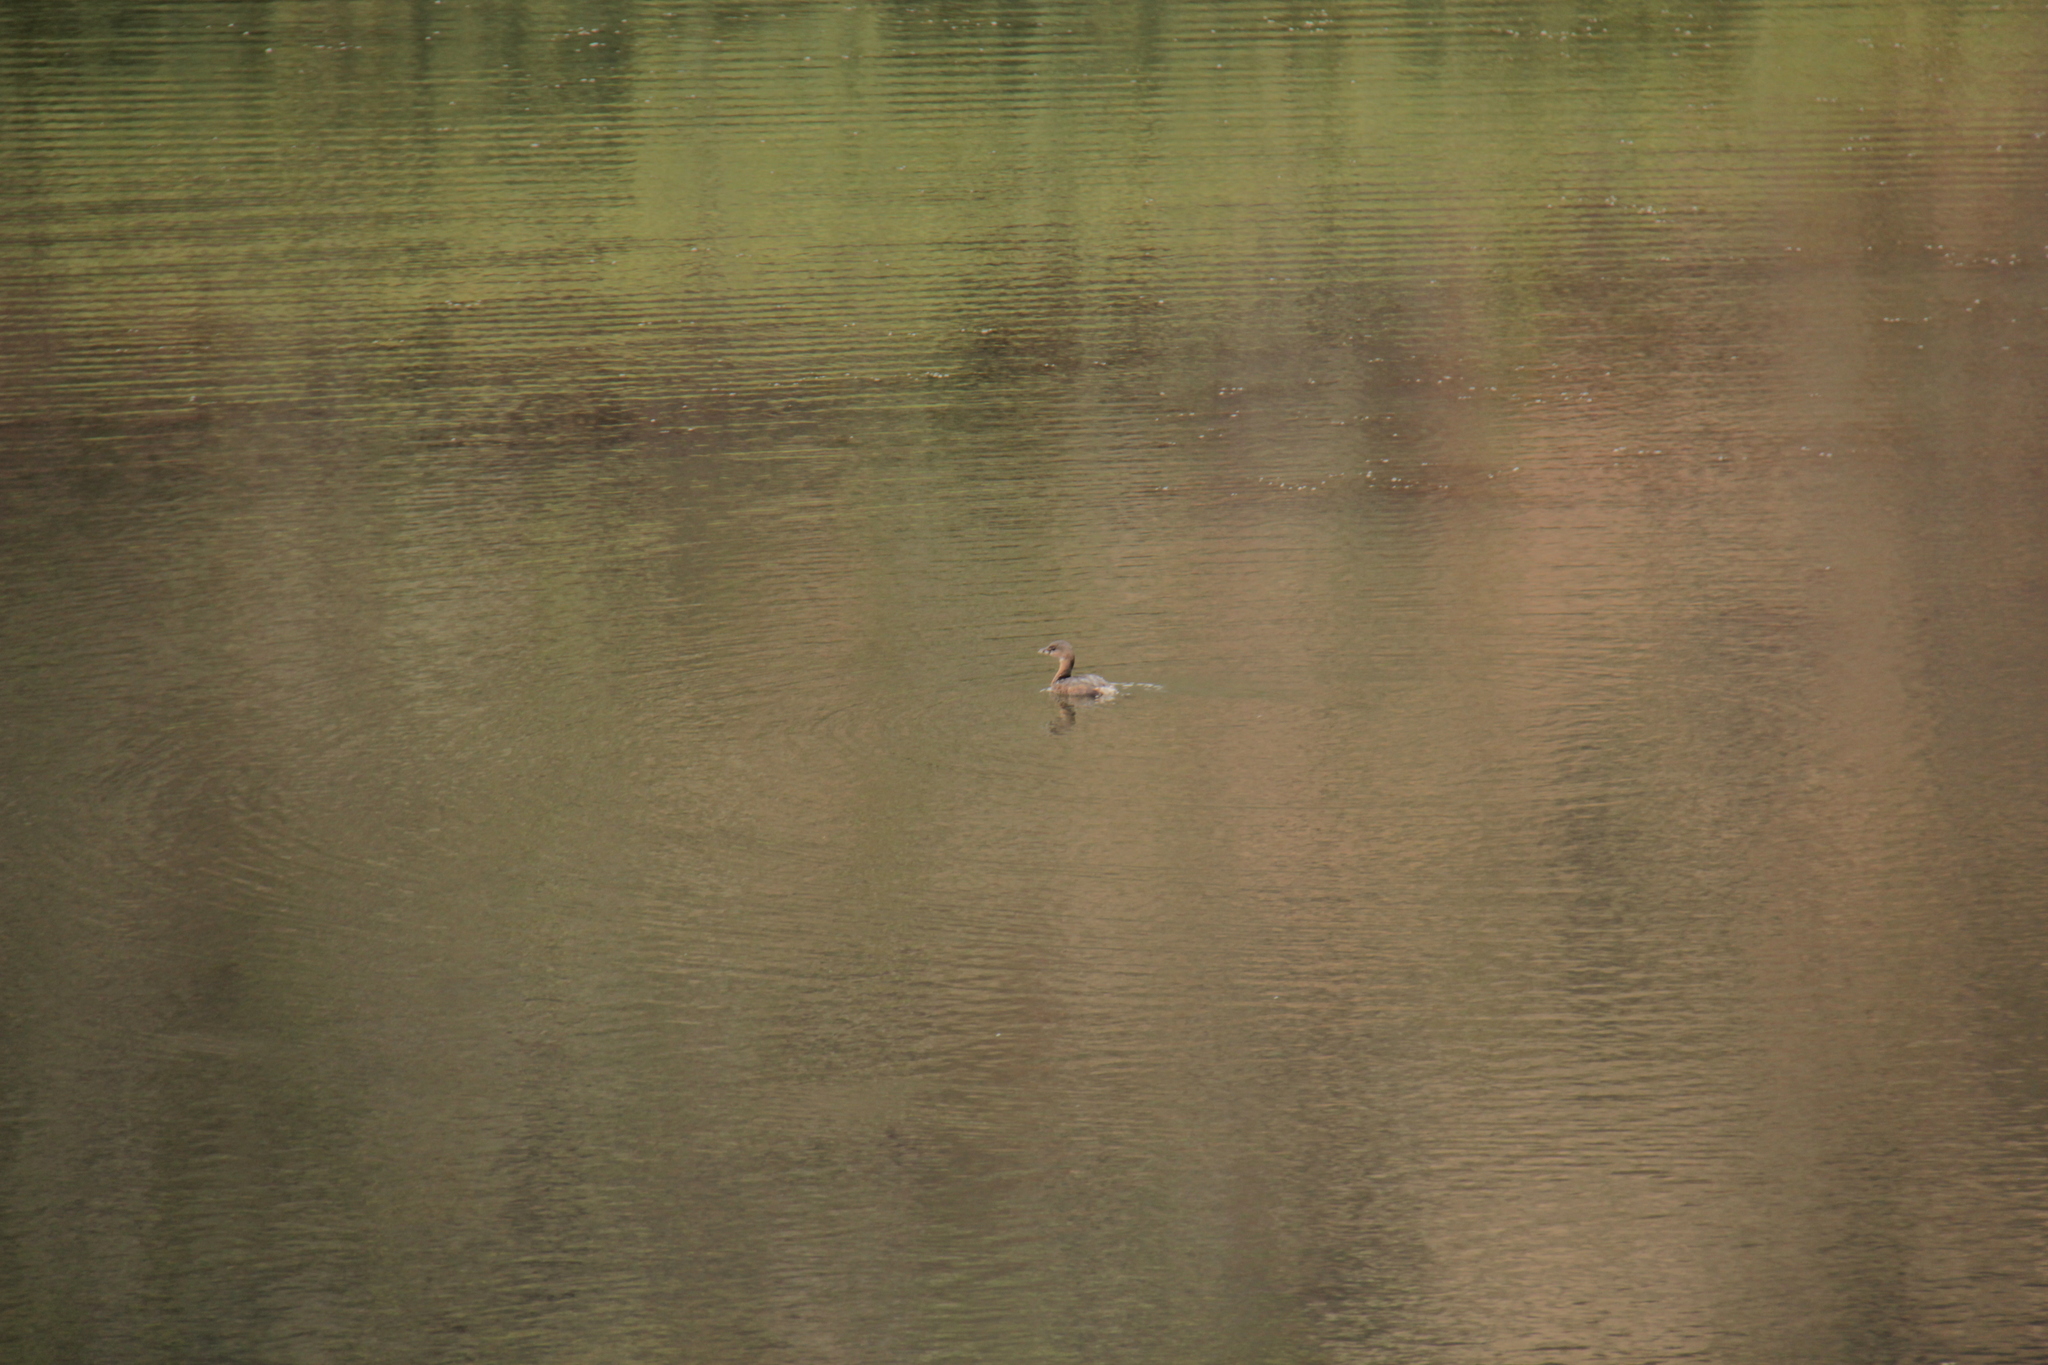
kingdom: Animalia
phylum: Chordata
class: Aves
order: Podicipediformes
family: Podicipedidae
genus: Podilymbus
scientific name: Podilymbus podiceps
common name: Pied-billed grebe
